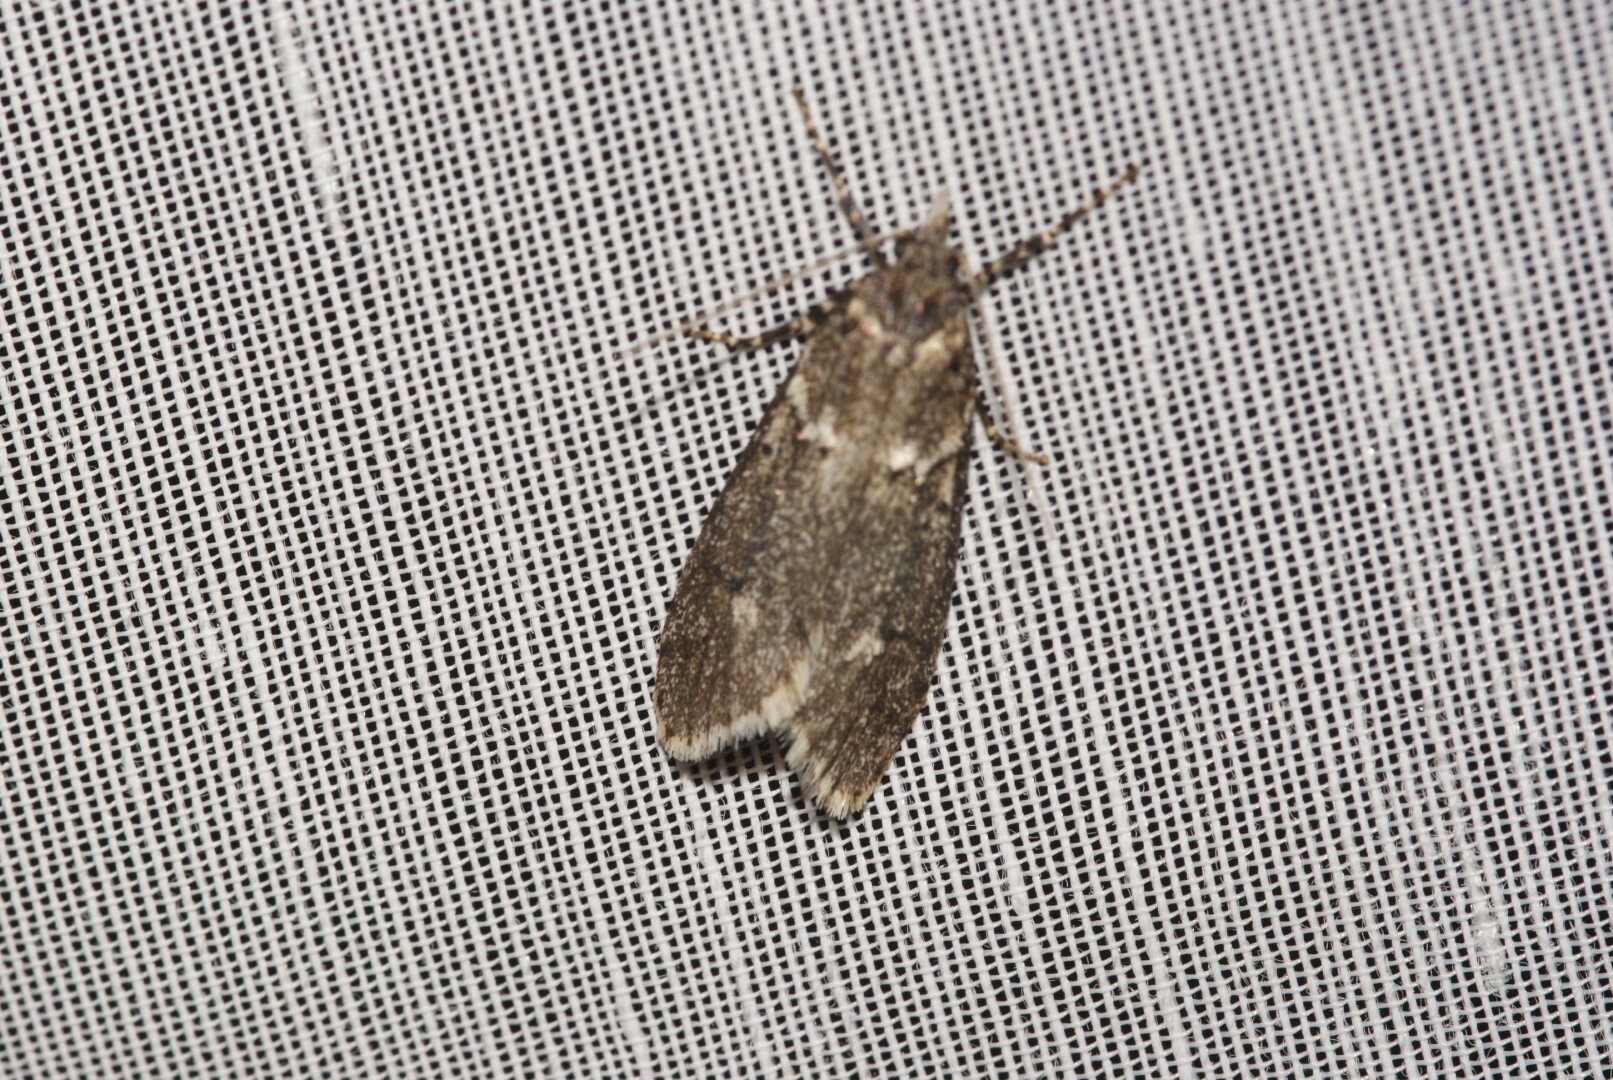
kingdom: Animalia
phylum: Arthropoda
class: Insecta
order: Lepidoptera
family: Lypusidae
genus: Diurnea
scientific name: Diurnea fagella
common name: March tubic
